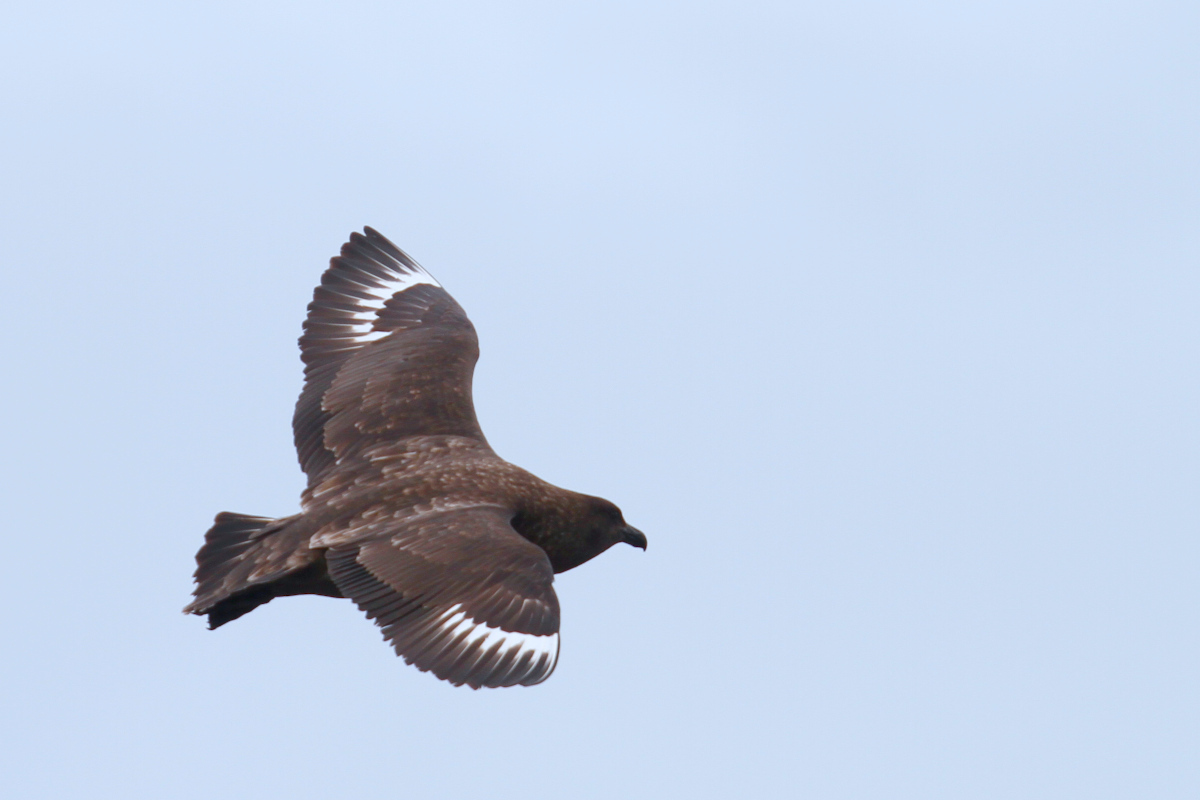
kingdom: Animalia
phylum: Chordata
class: Aves
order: Charadriiformes
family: Stercorariidae
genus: Stercorarius
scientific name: Stercorarius antarcticus
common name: Brown skua
